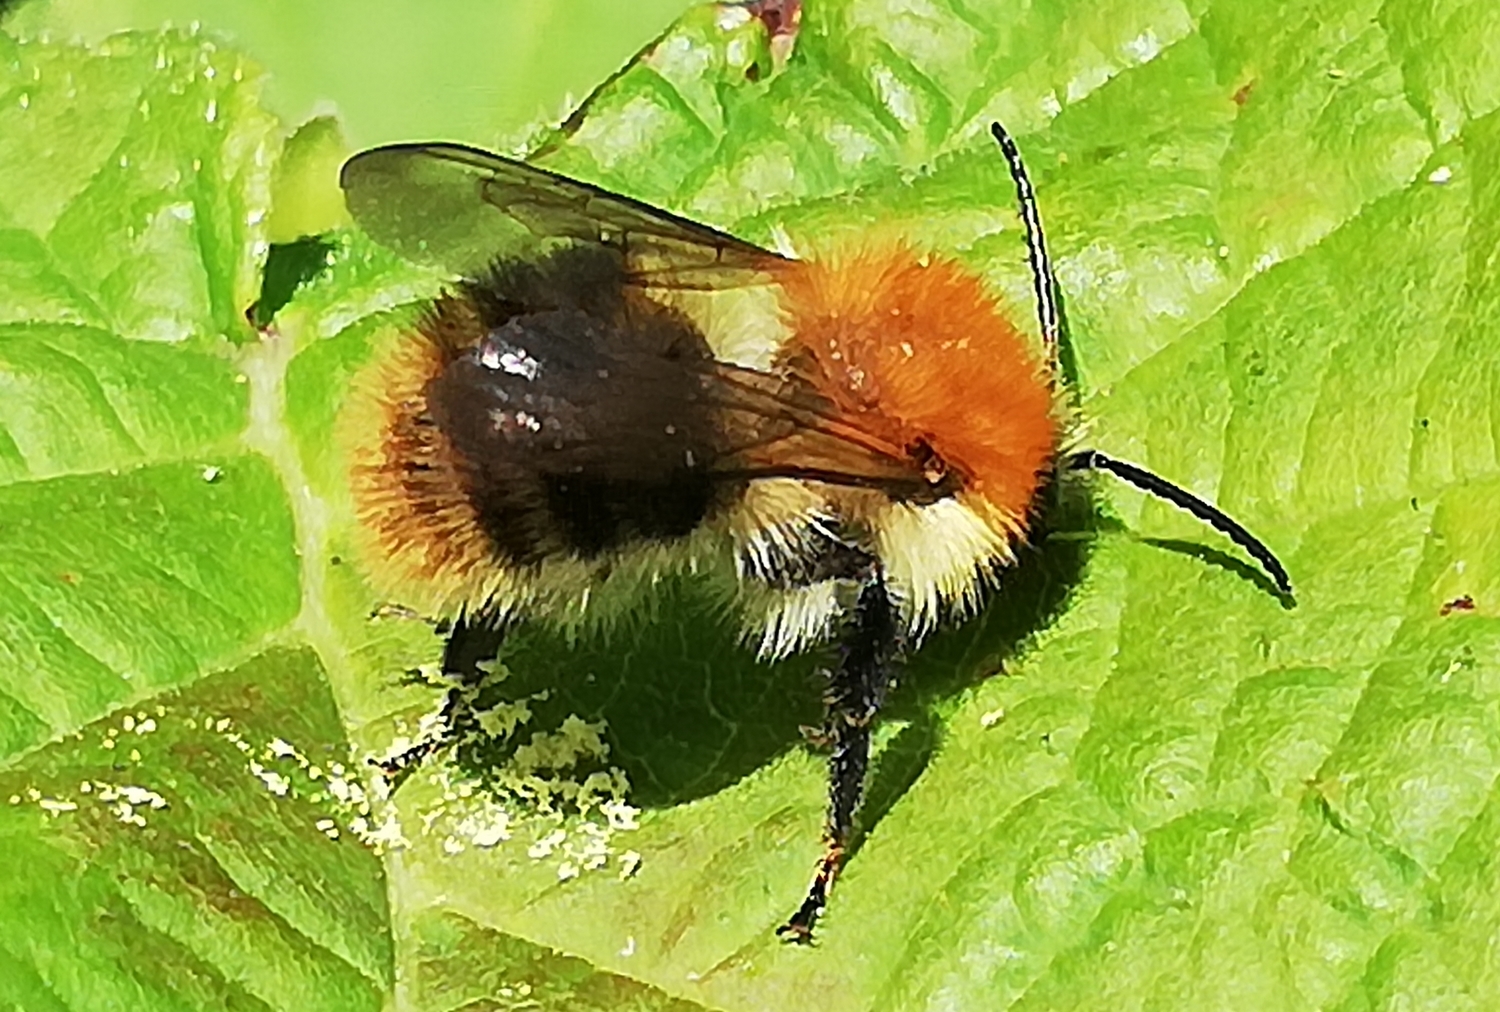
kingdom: Animalia
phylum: Arthropoda
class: Insecta
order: Hymenoptera
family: Apidae
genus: Bombus
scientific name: Bombus pascuorum
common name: Common carder bee
